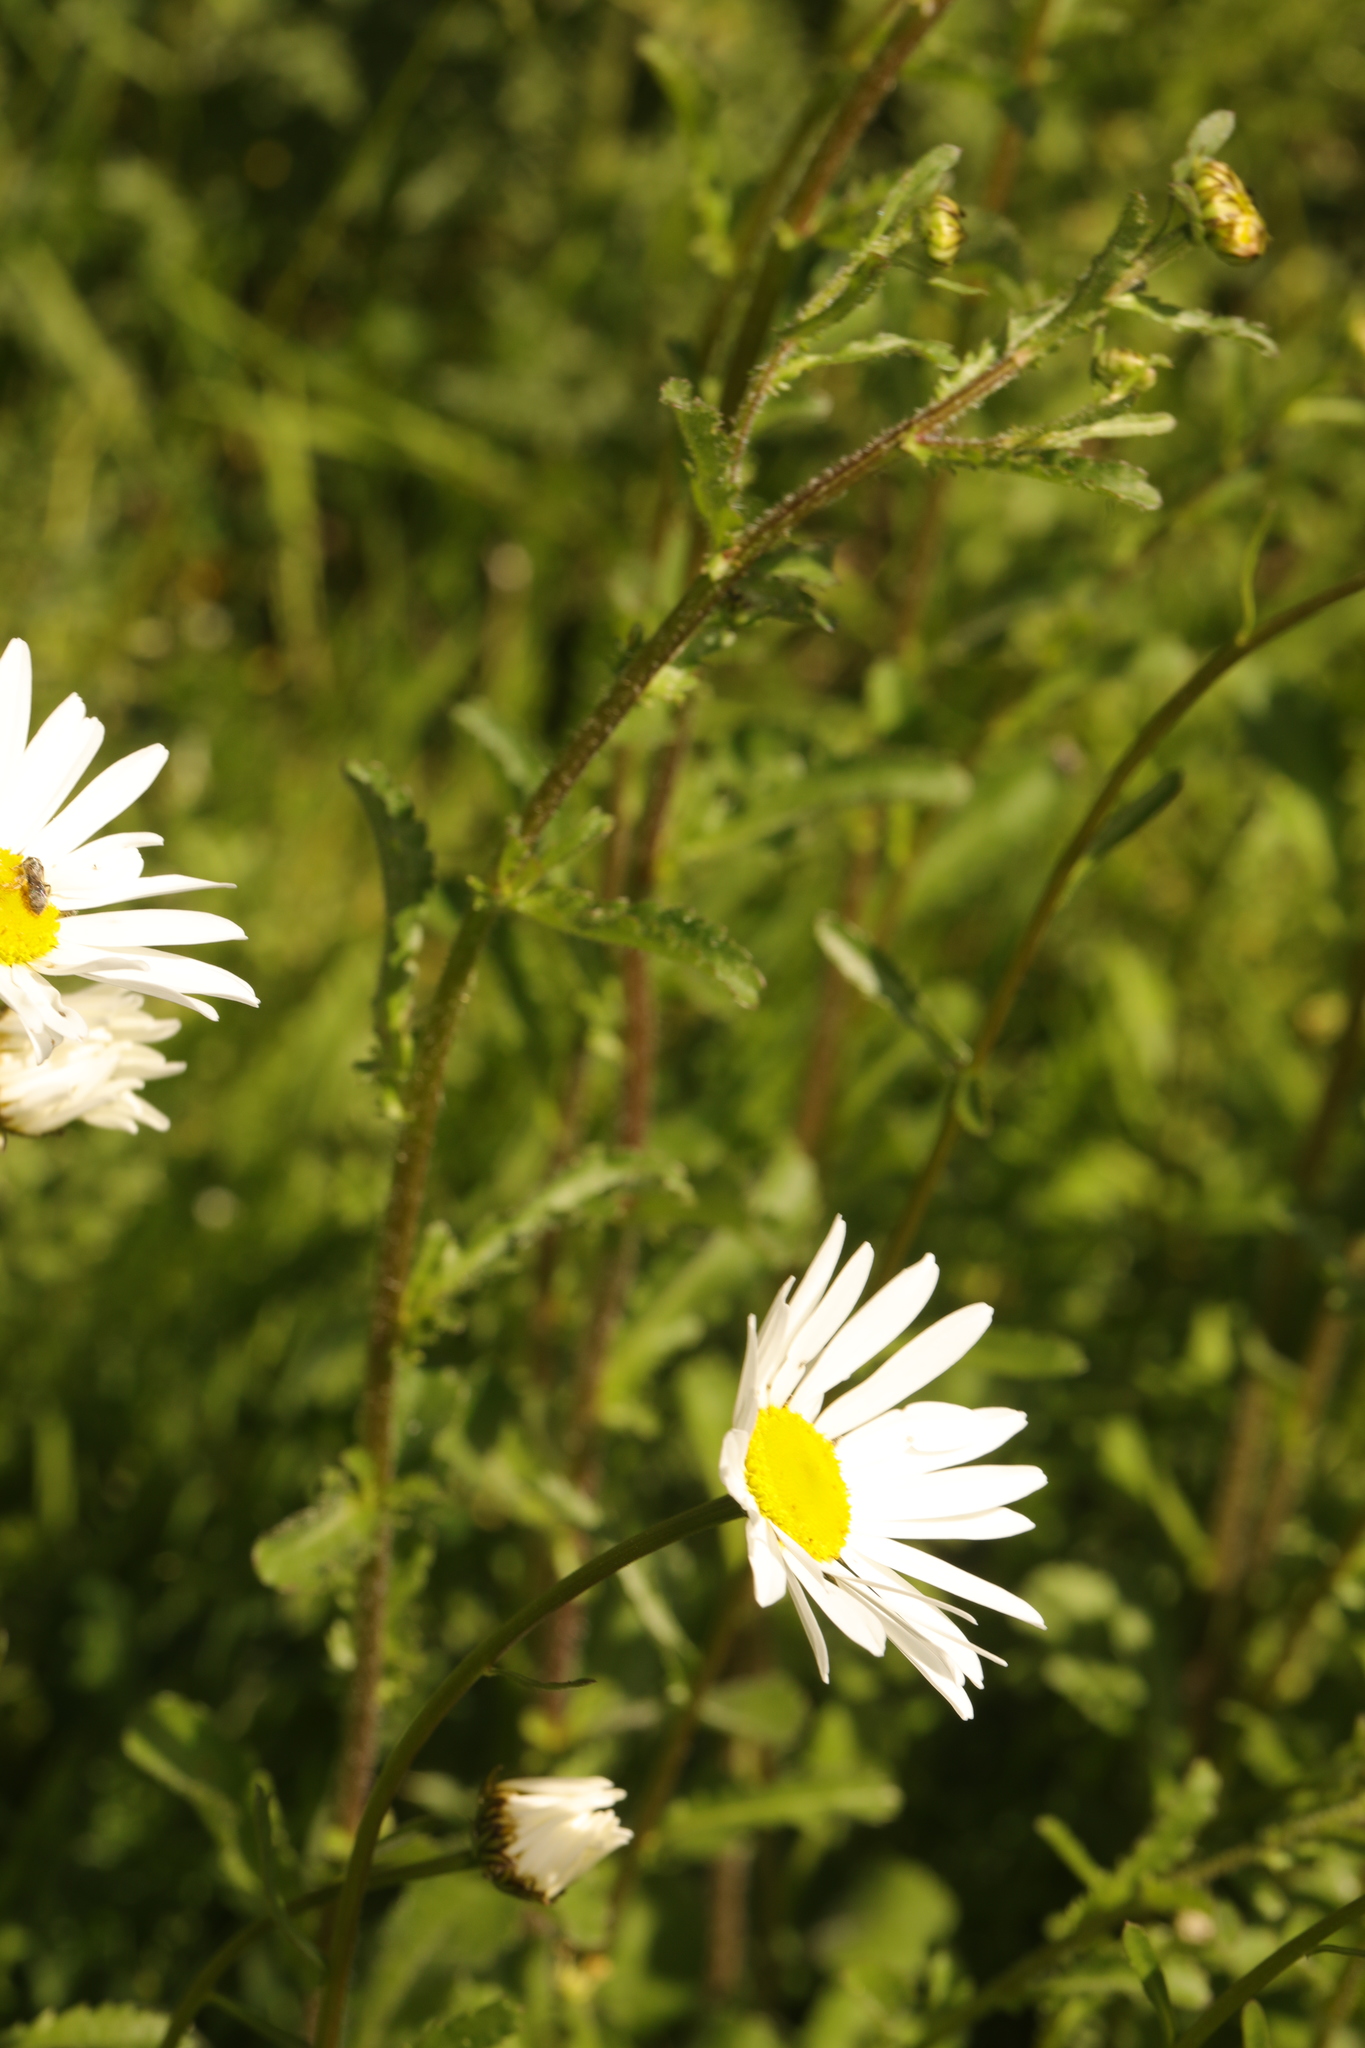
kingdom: Plantae
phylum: Tracheophyta
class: Magnoliopsida
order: Asterales
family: Asteraceae
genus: Leucanthemum
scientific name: Leucanthemum vulgare
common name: Oxeye daisy
